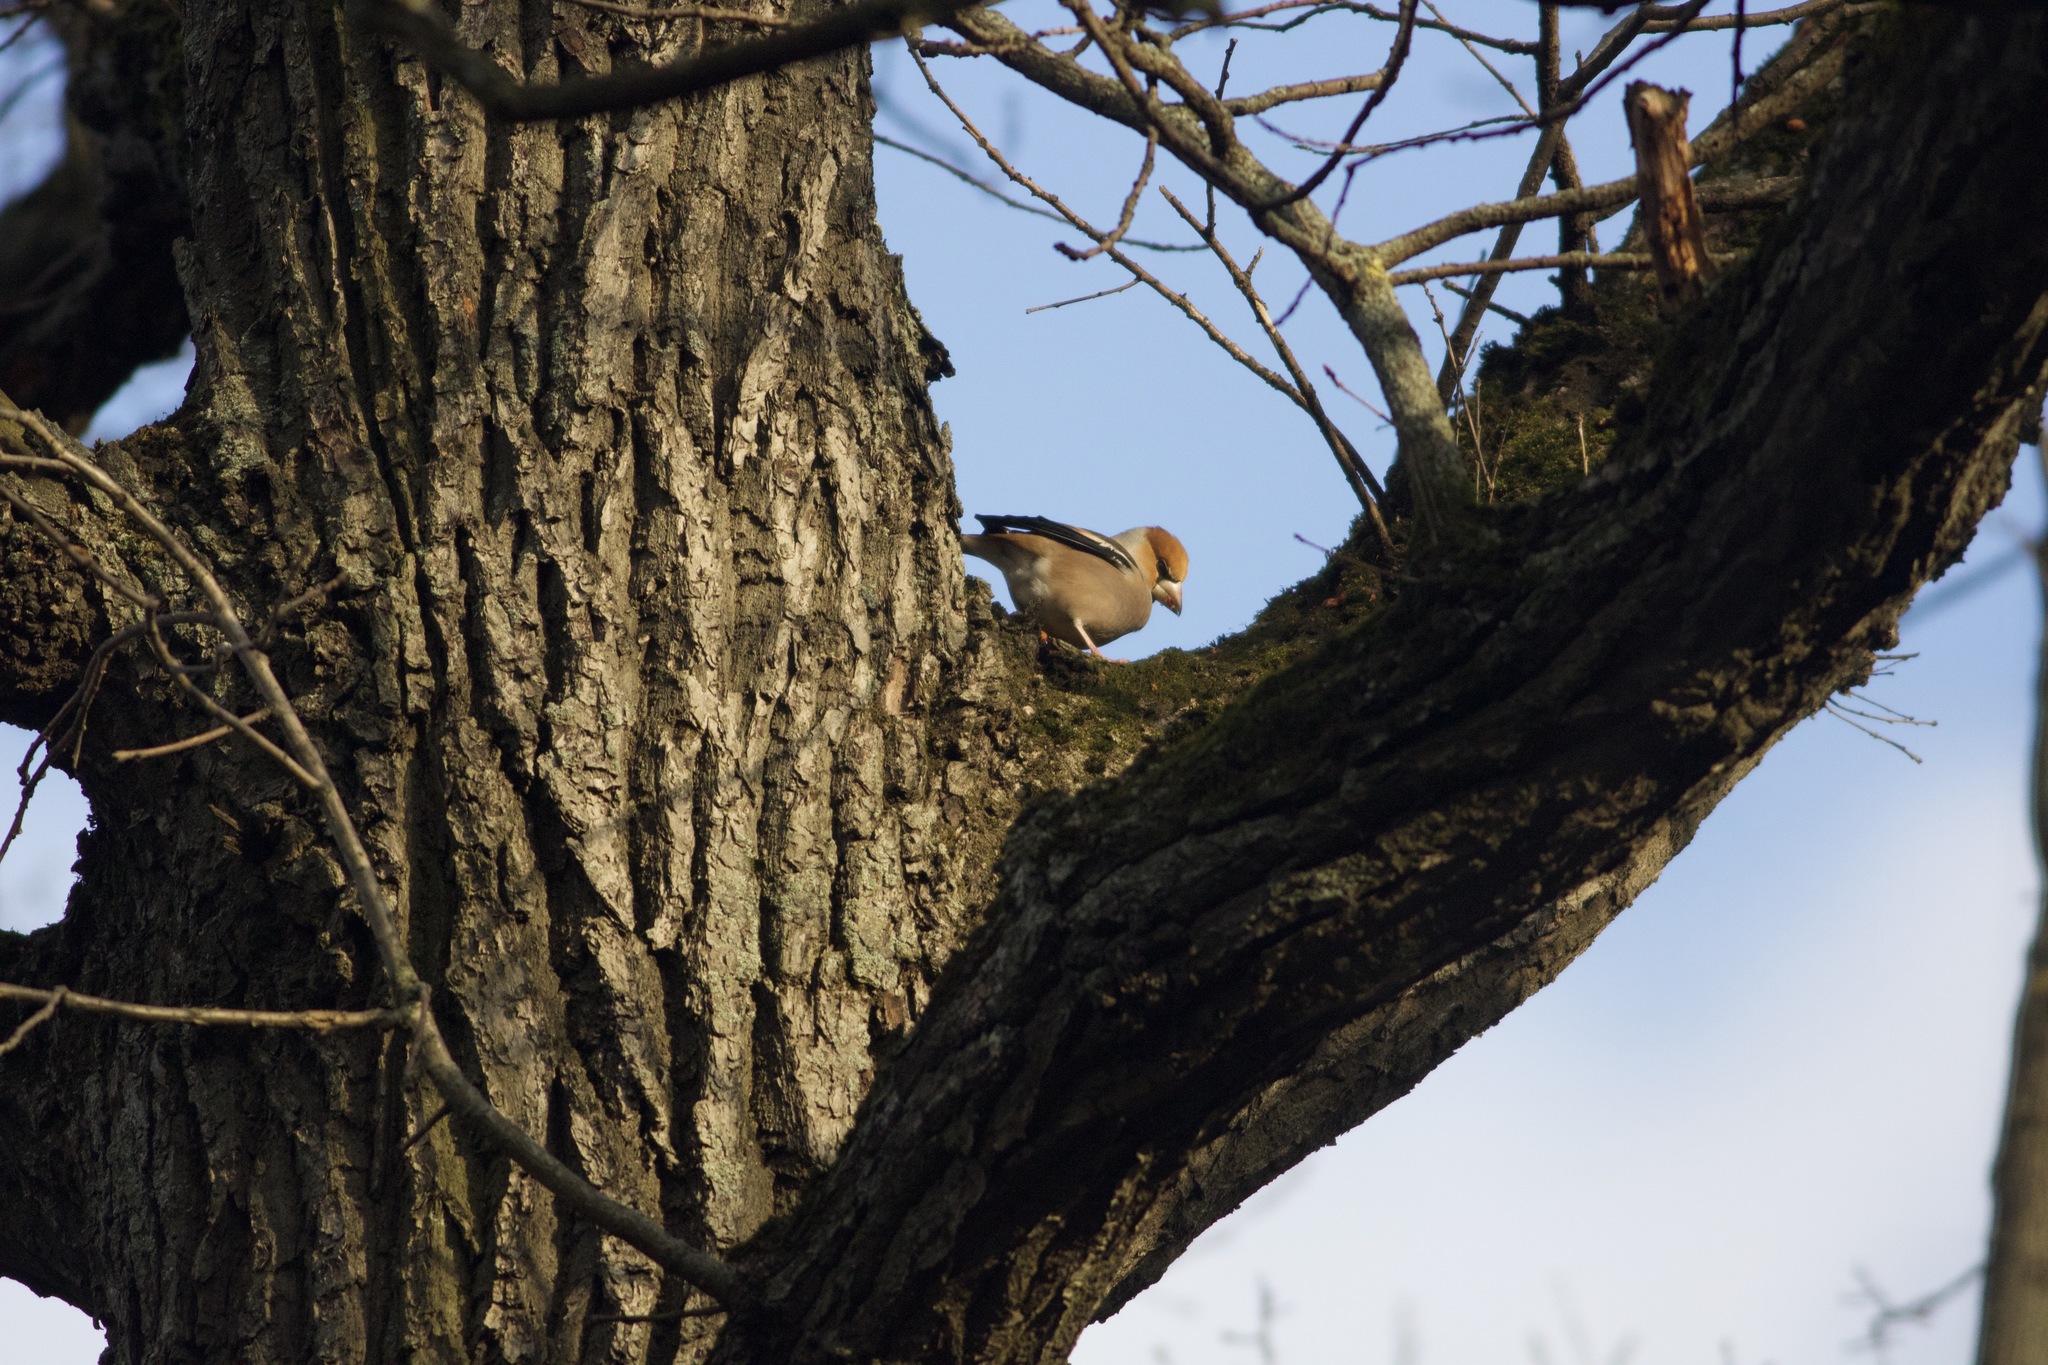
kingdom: Animalia
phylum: Chordata
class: Aves
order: Passeriformes
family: Fringillidae
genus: Coccothraustes
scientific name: Coccothraustes coccothraustes
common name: Hawfinch
